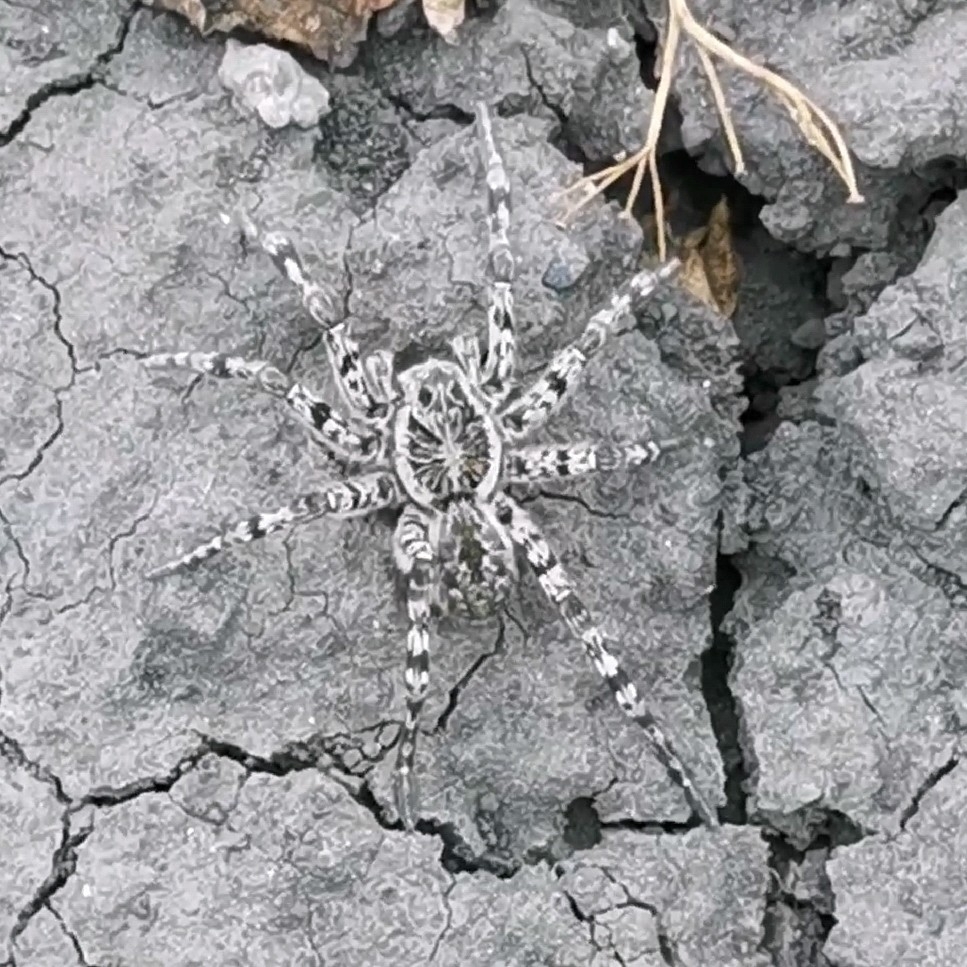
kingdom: Animalia
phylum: Arthropoda
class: Arachnida
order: Araneae
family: Lycosidae
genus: Lycosa
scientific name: Lycosa singoriensis
